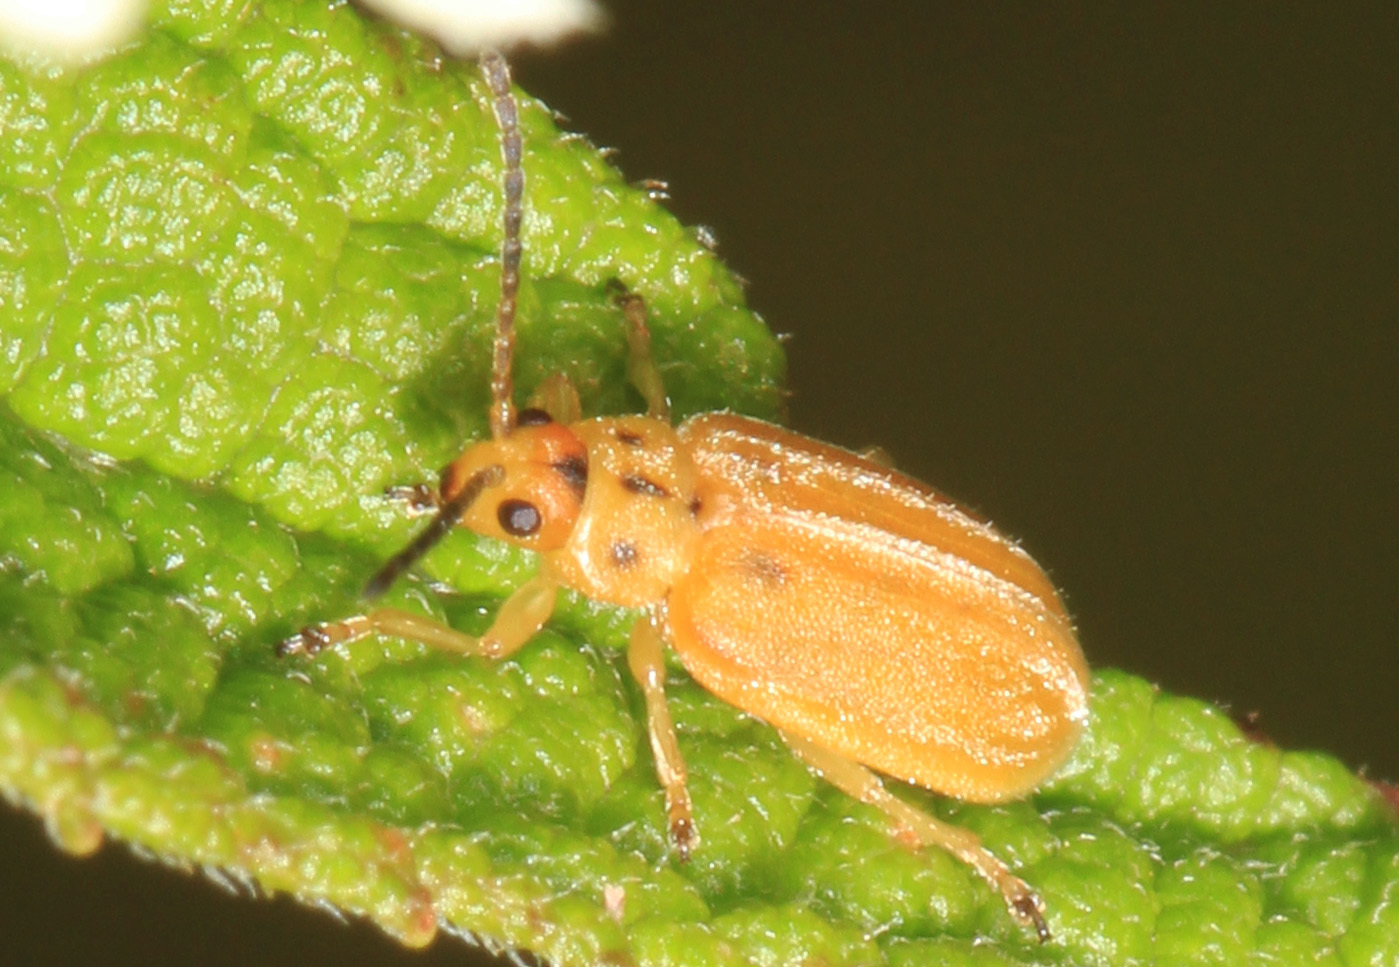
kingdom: Animalia
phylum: Arthropoda
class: Insecta
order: Coleoptera
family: Chrysomelidae
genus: Ophraella
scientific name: Ophraella notata
